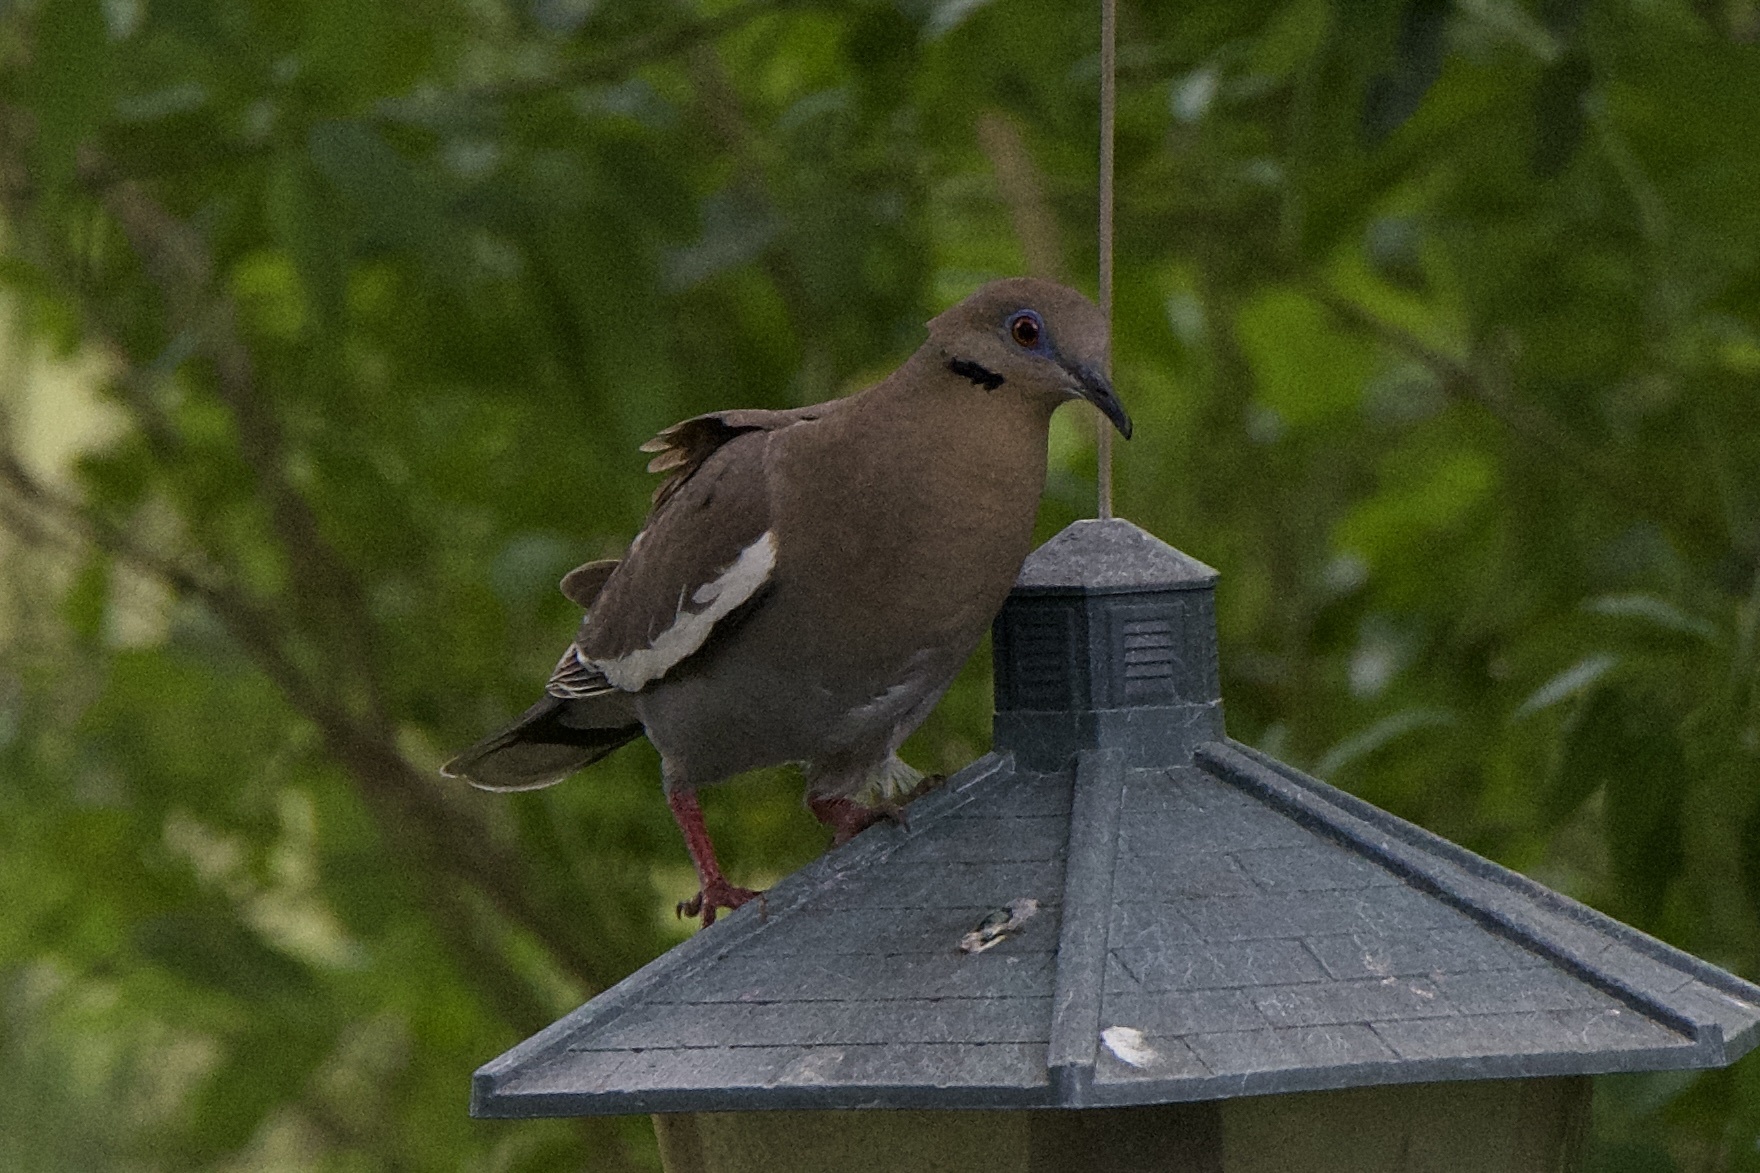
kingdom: Animalia
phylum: Chordata
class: Aves
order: Columbiformes
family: Columbidae
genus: Zenaida
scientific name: Zenaida asiatica
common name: White-winged dove
